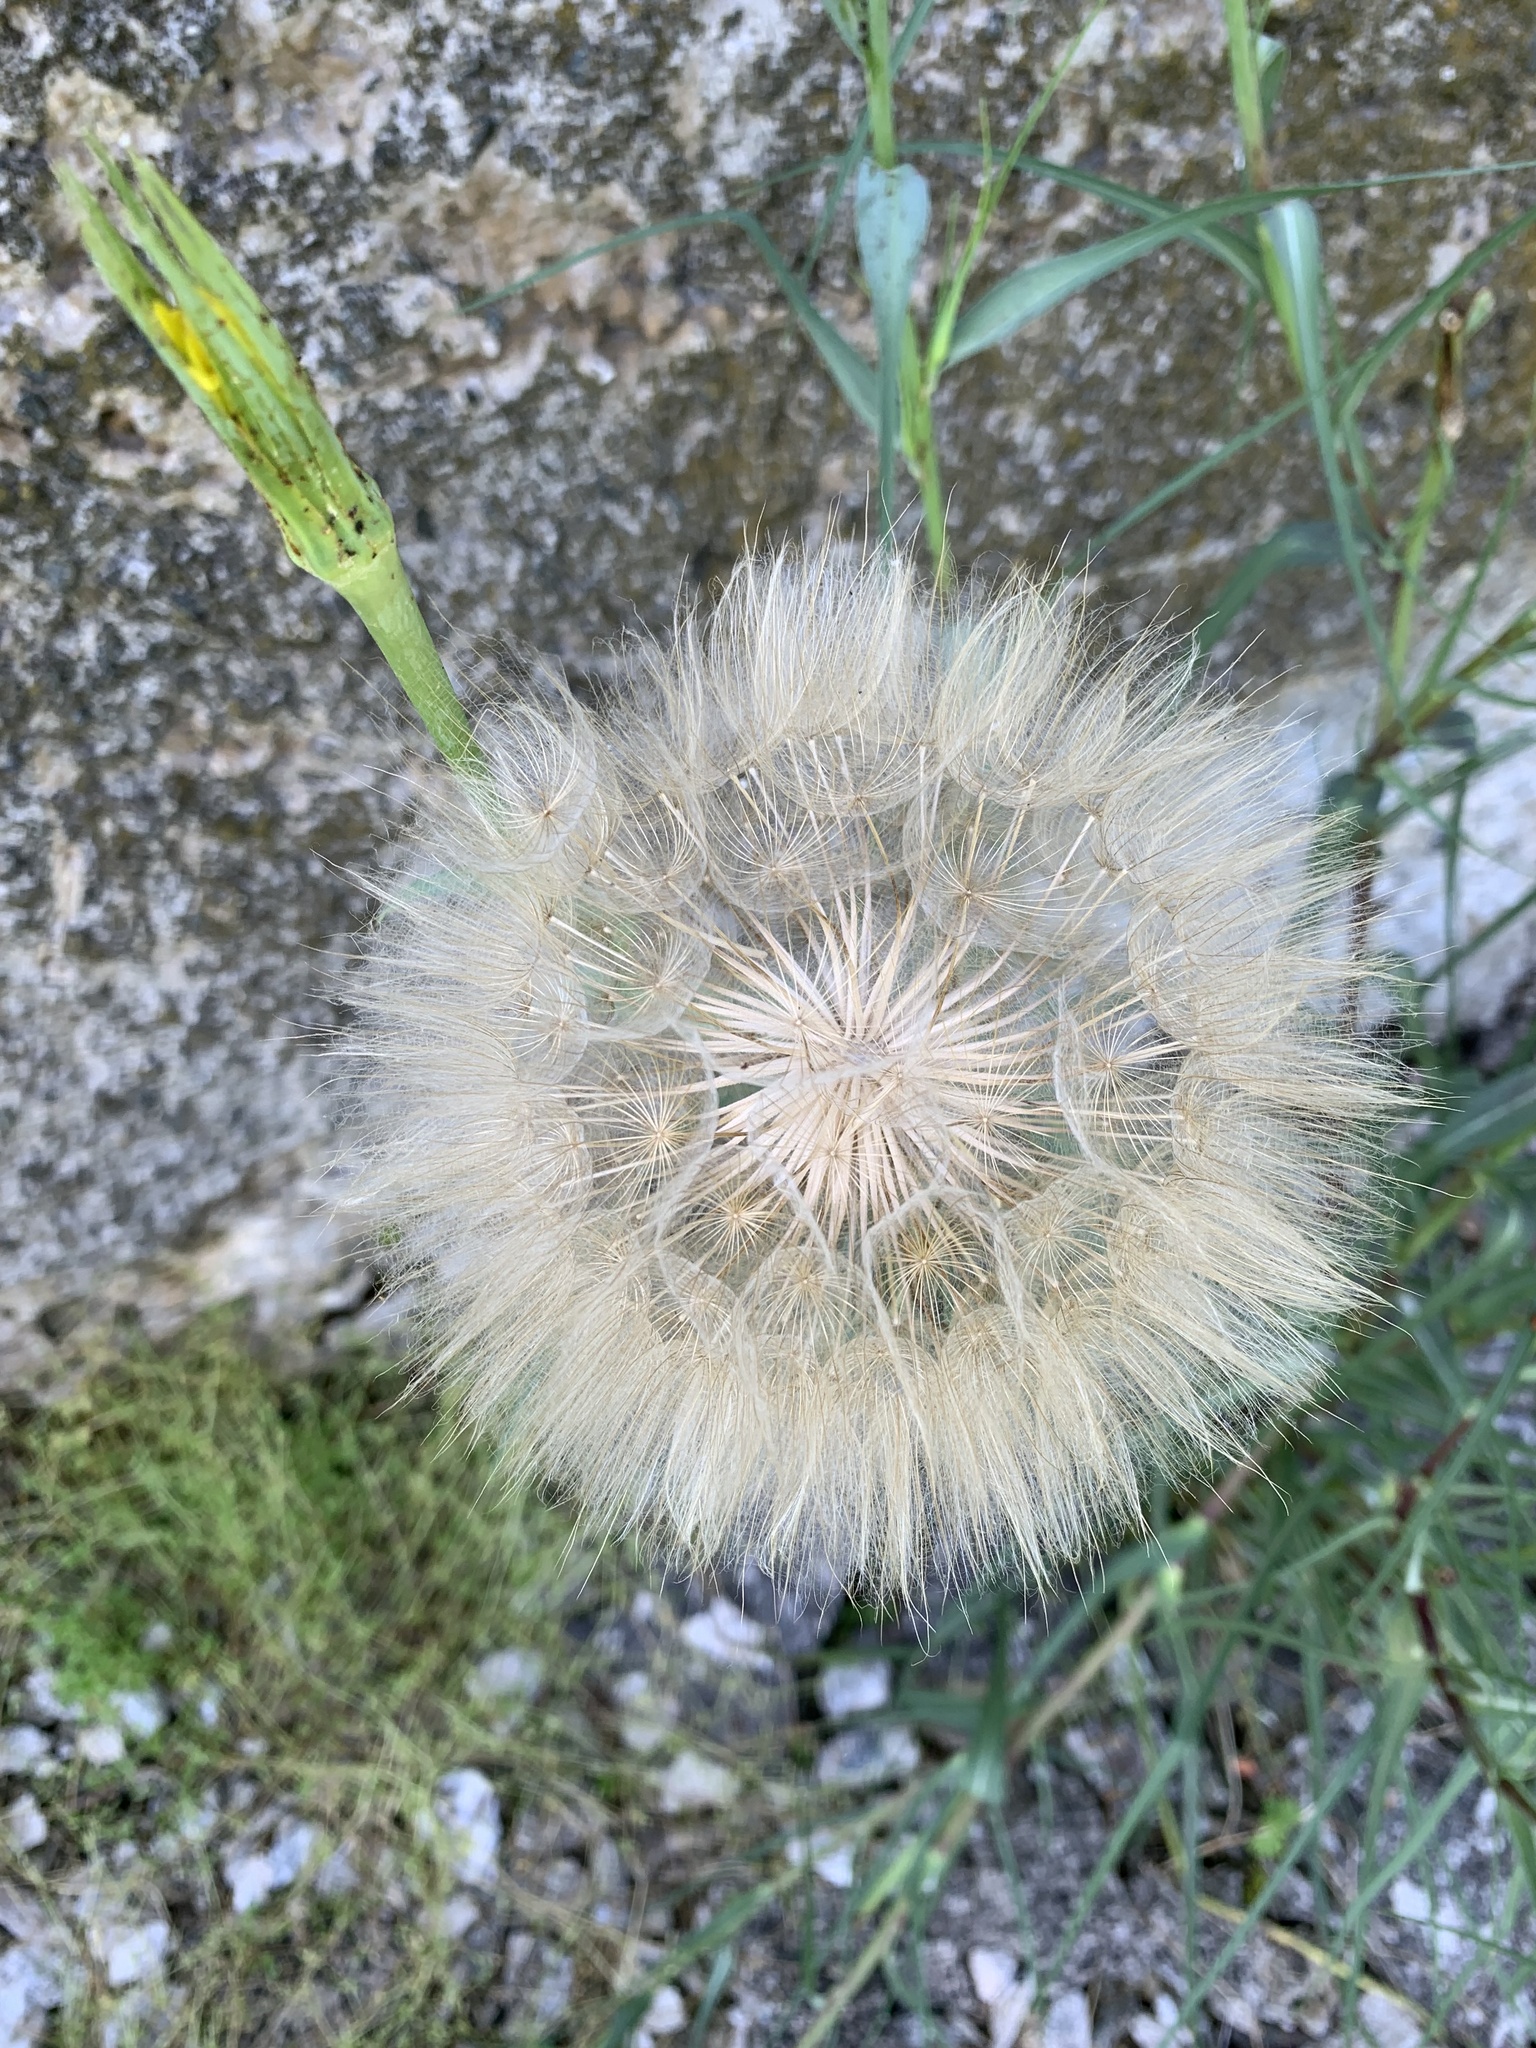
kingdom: Plantae
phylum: Tracheophyta
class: Magnoliopsida
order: Asterales
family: Asteraceae
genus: Tragopogon
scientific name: Tragopogon dubius
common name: Yellow salsify
